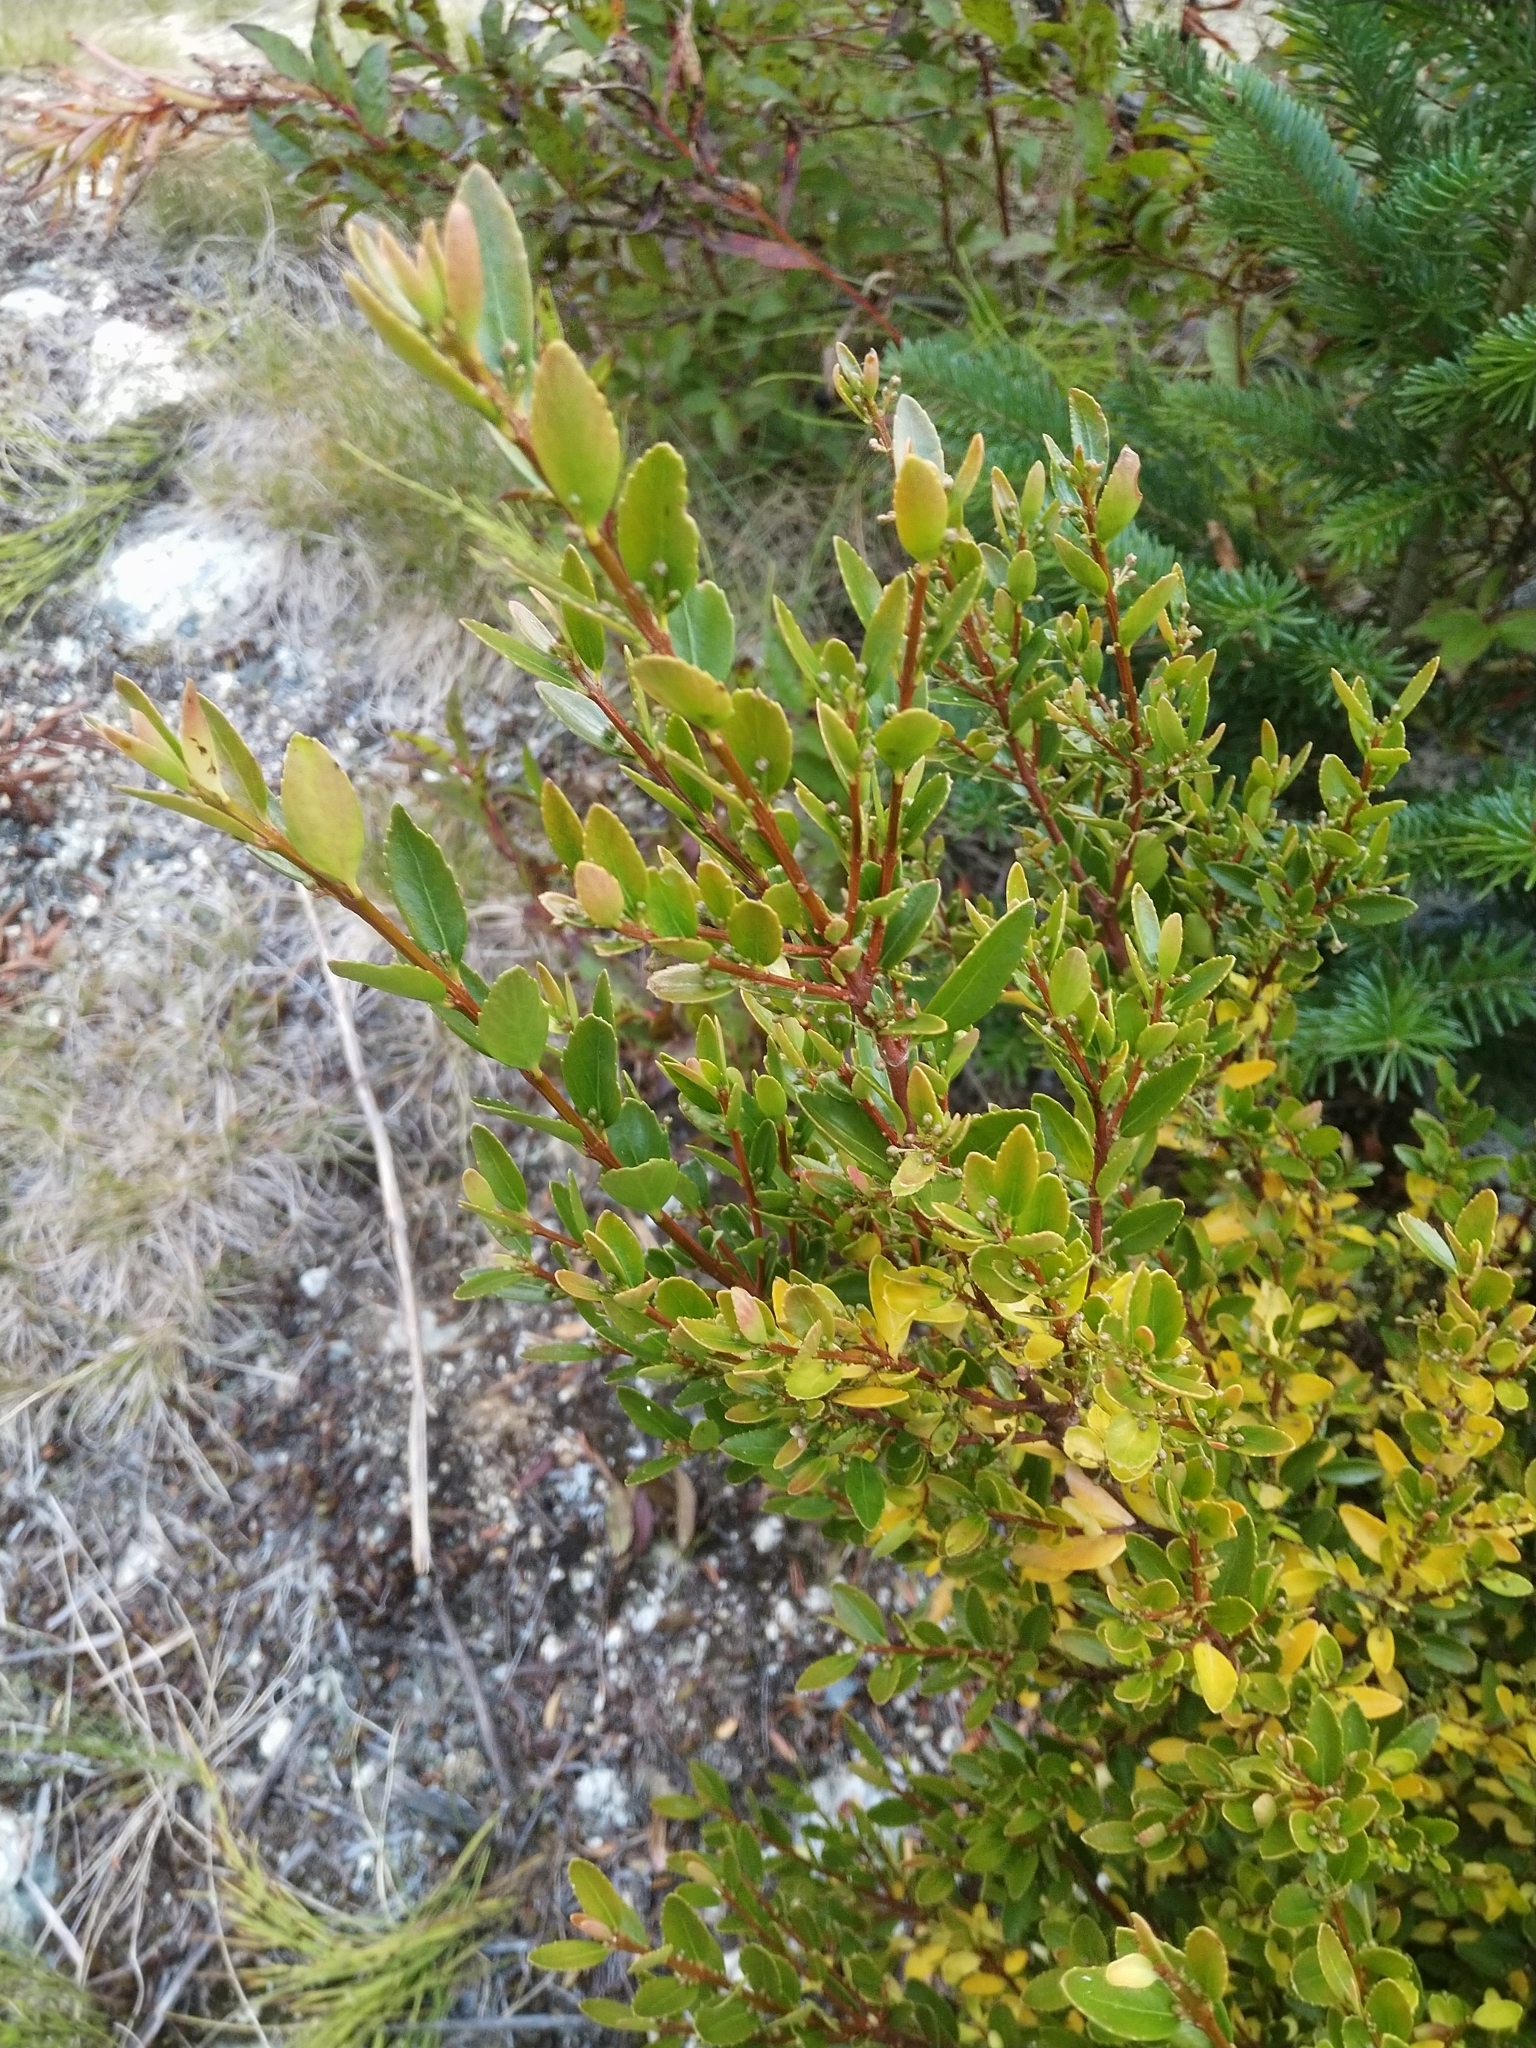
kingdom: Plantae
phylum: Tracheophyta
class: Magnoliopsida
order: Celastrales
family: Celastraceae
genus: Paxistima
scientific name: Paxistima myrsinites
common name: Mountain-lover
